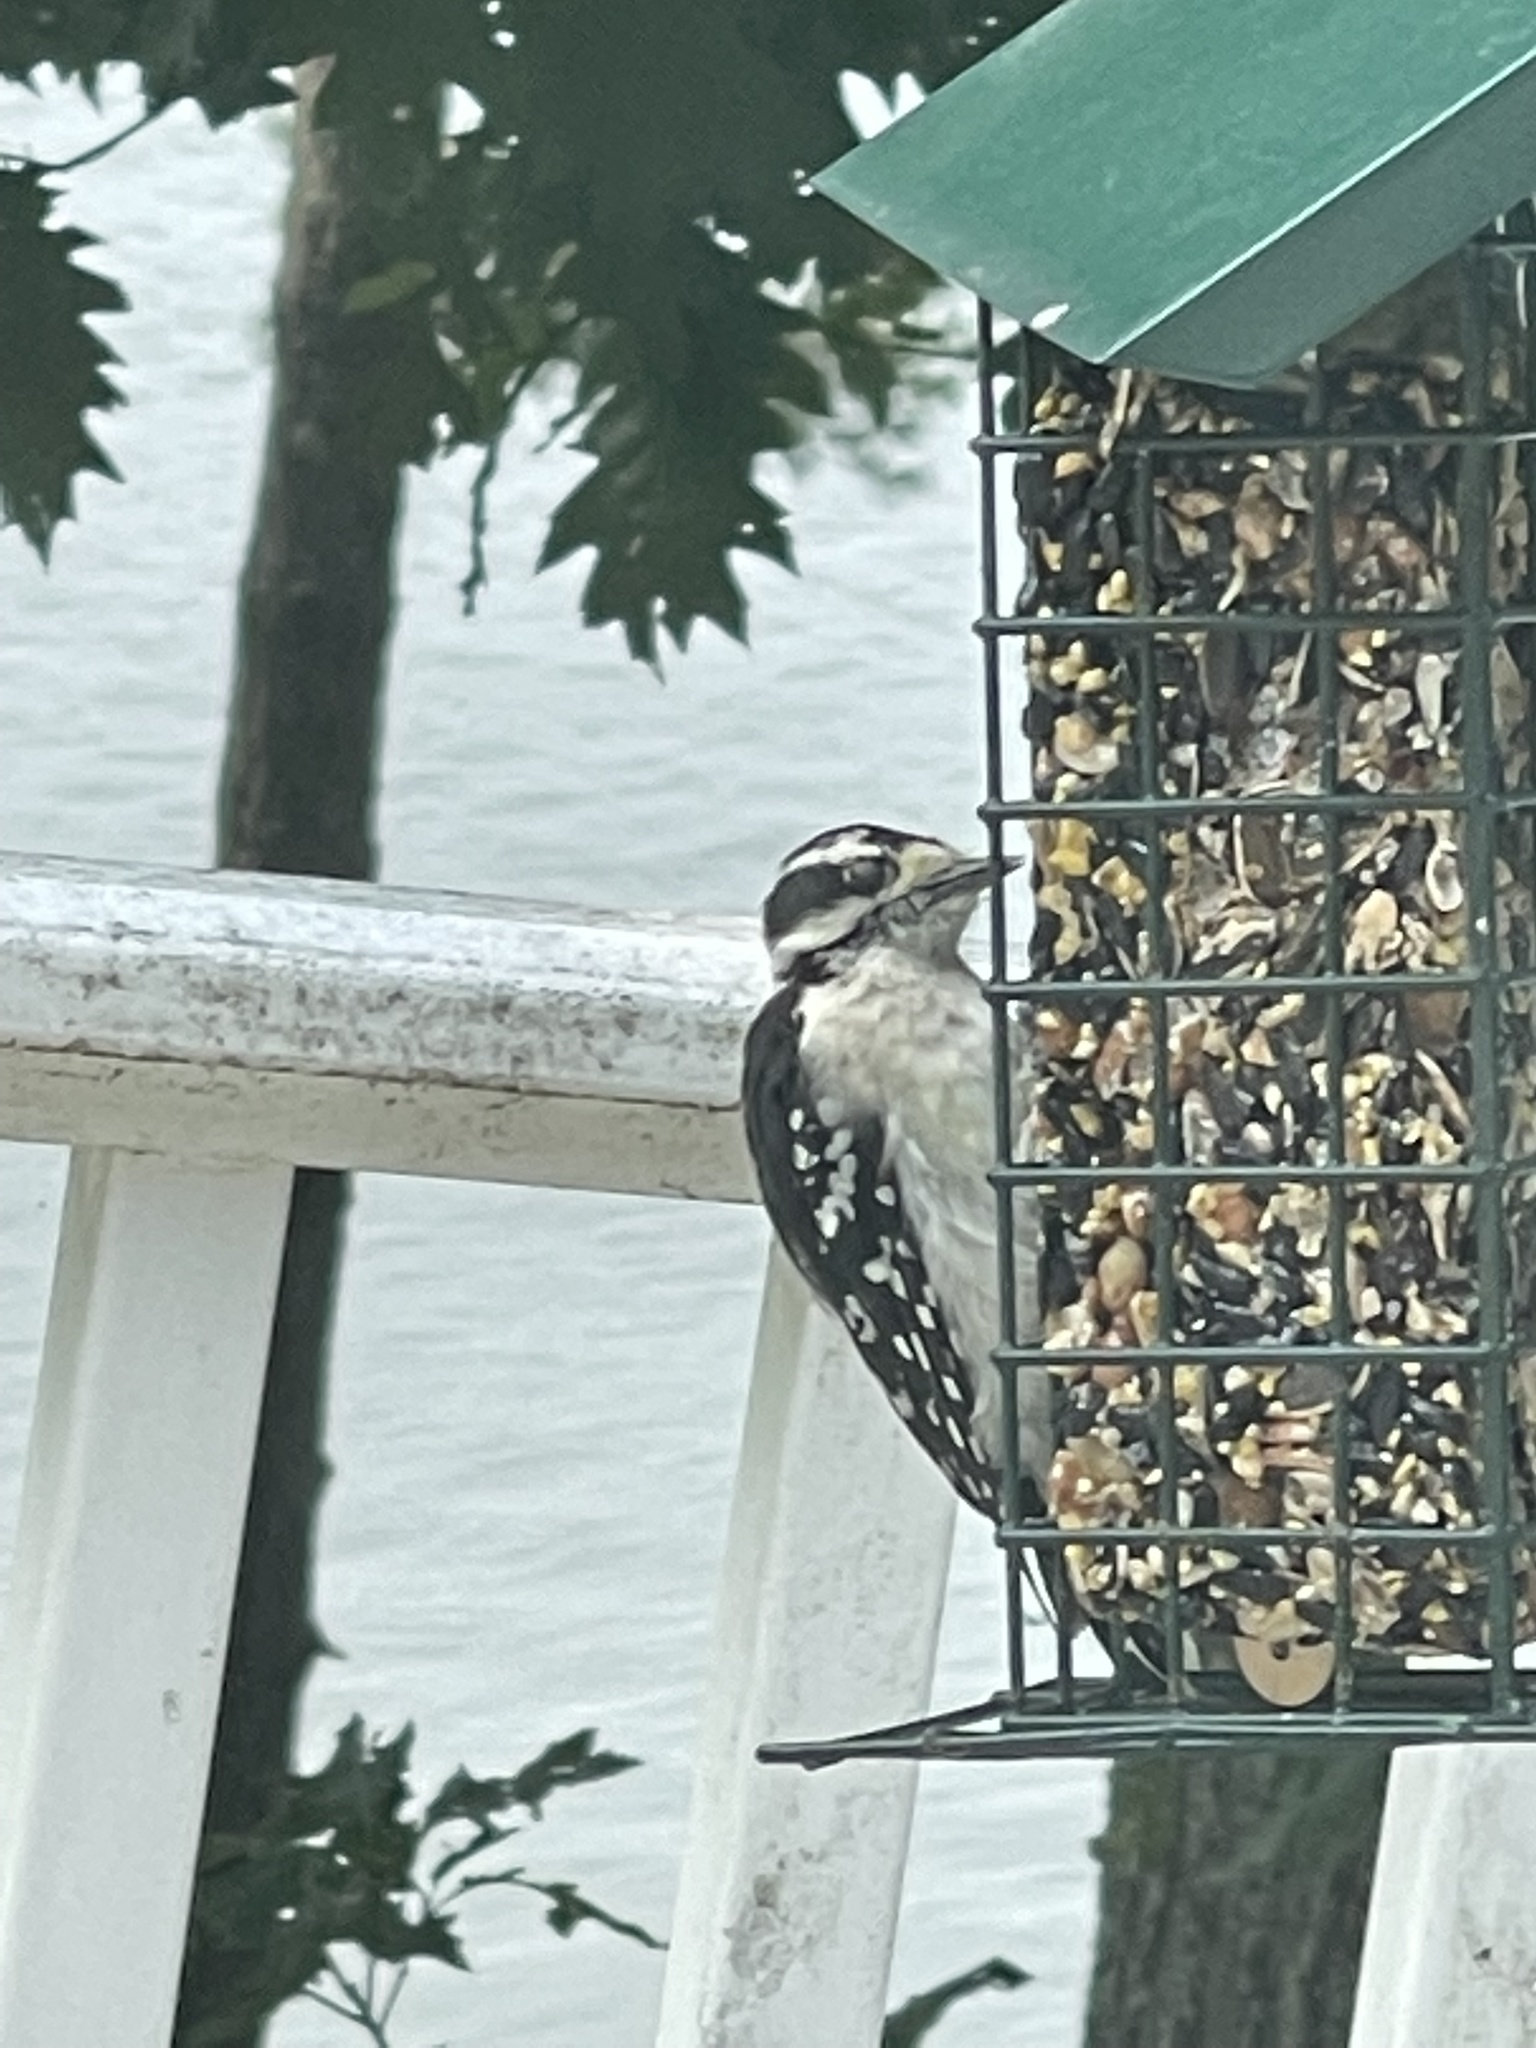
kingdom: Animalia
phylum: Chordata
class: Aves
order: Piciformes
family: Picidae
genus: Dryobates
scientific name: Dryobates pubescens
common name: Downy woodpecker
